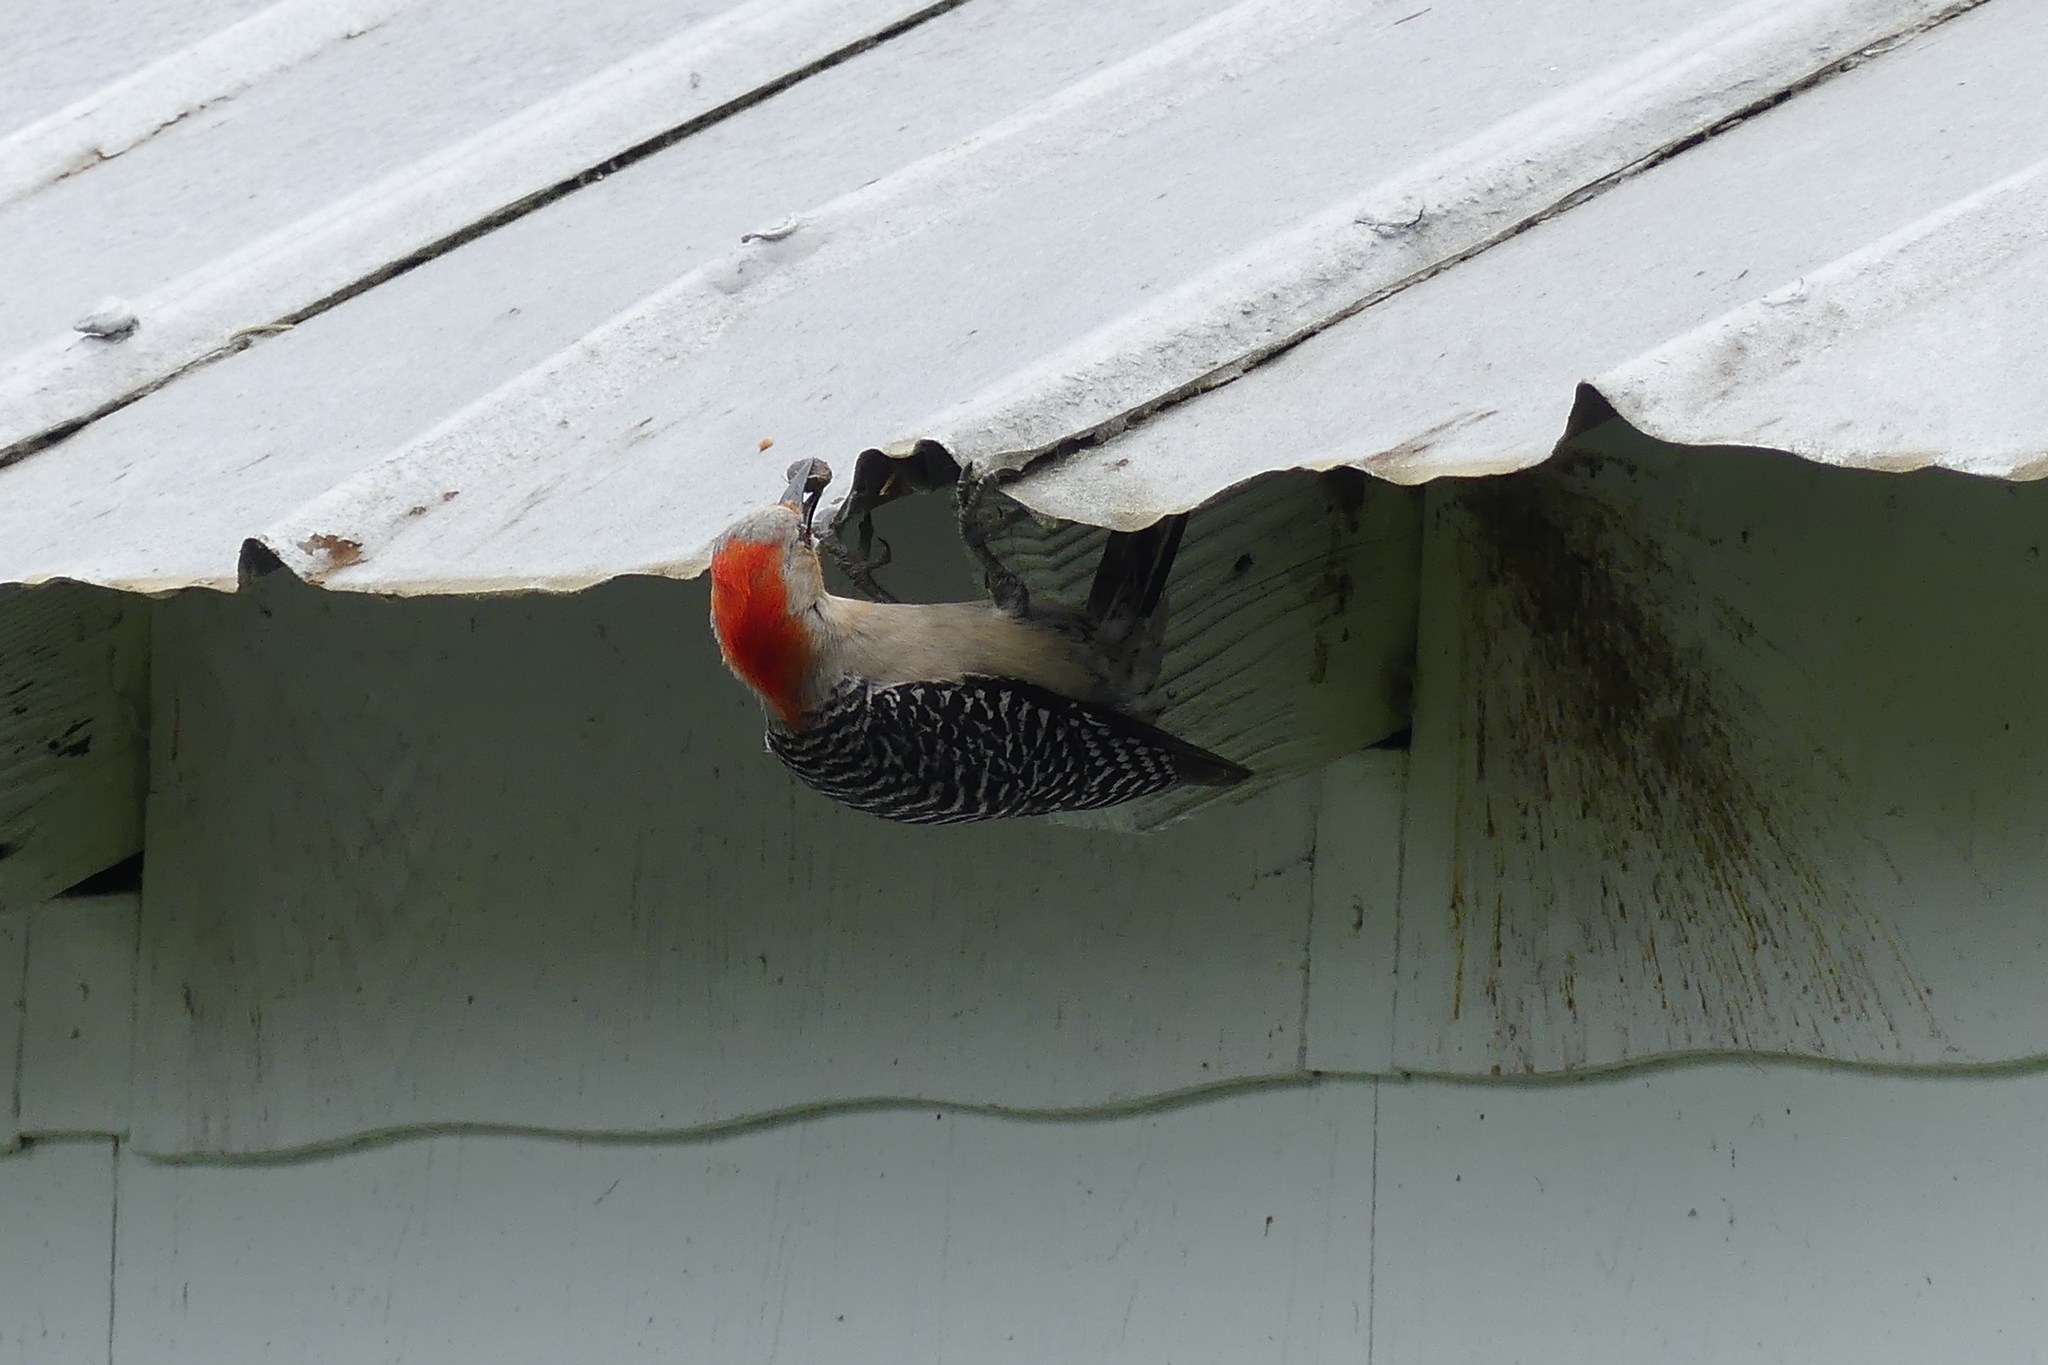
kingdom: Animalia
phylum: Chordata
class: Aves
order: Piciformes
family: Picidae
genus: Melanerpes
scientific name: Melanerpes carolinus
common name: Red-bellied woodpecker
